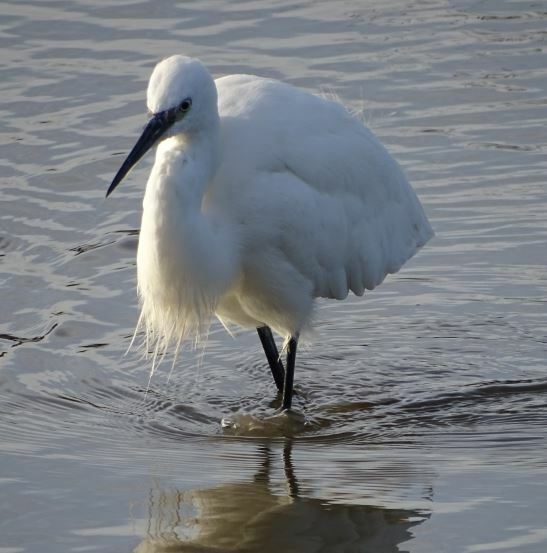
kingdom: Animalia
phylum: Chordata
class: Aves
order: Pelecaniformes
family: Ardeidae
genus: Egretta
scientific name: Egretta garzetta
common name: Little egret
